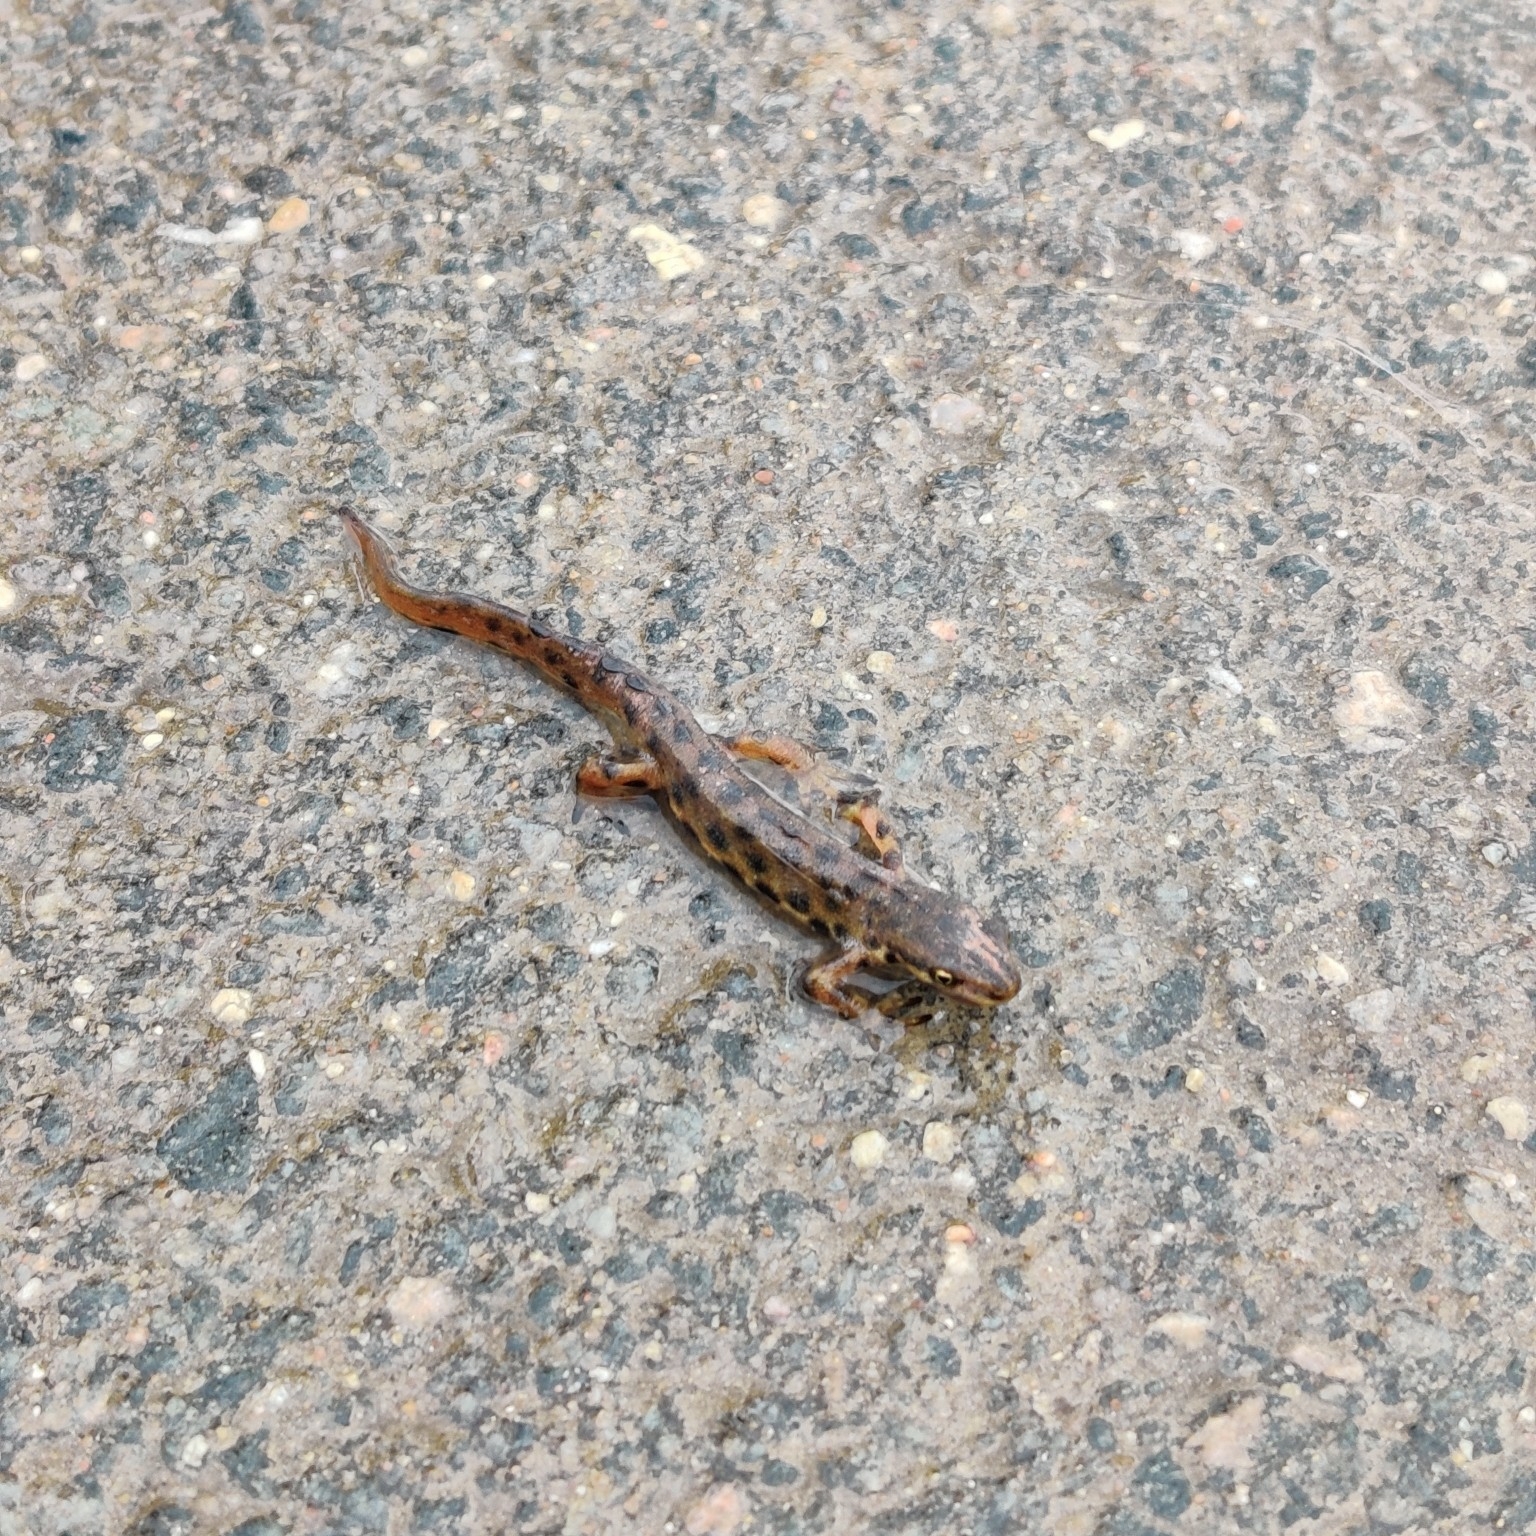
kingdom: Animalia
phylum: Chordata
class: Amphibia
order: Caudata
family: Salamandridae
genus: Lissotriton
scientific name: Lissotriton vulgaris
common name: Smooth newt
